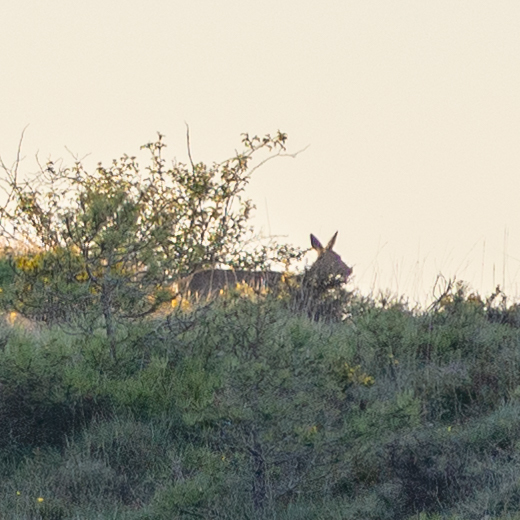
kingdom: Animalia
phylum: Chordata
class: Mammalia
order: Artiodactyla
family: Cervidae
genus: Capreolus
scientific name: Capreolus capreolus
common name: Western roe deer
